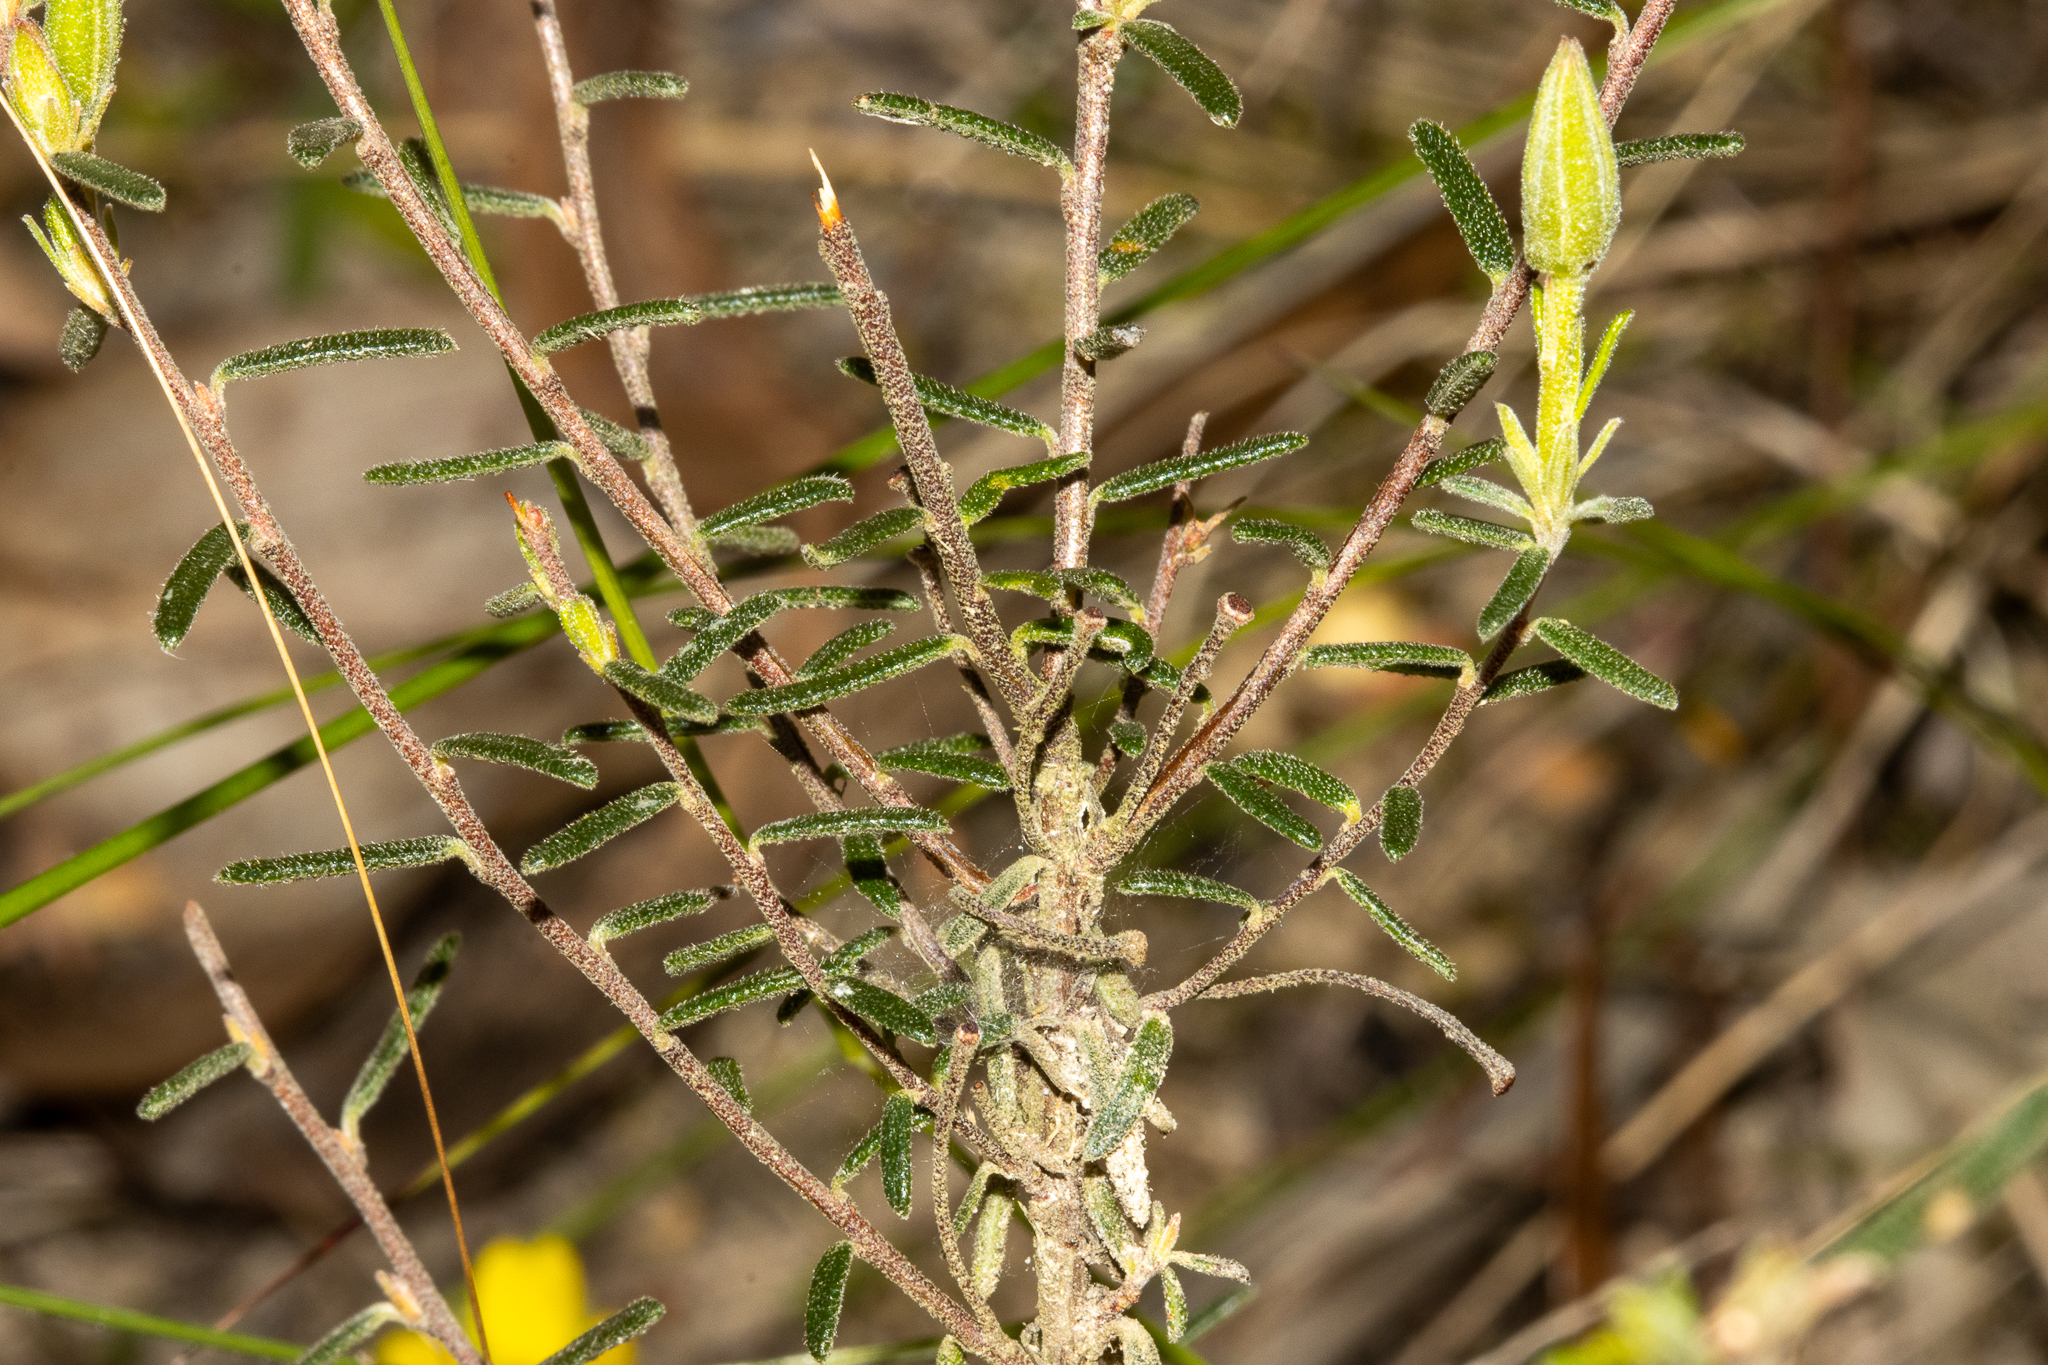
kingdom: Plantae
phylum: Tracheophyta
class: Magnoliopsida
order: Dilleniales
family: Dilleniaceae
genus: Hibbertia
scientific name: Hibbertia australis
